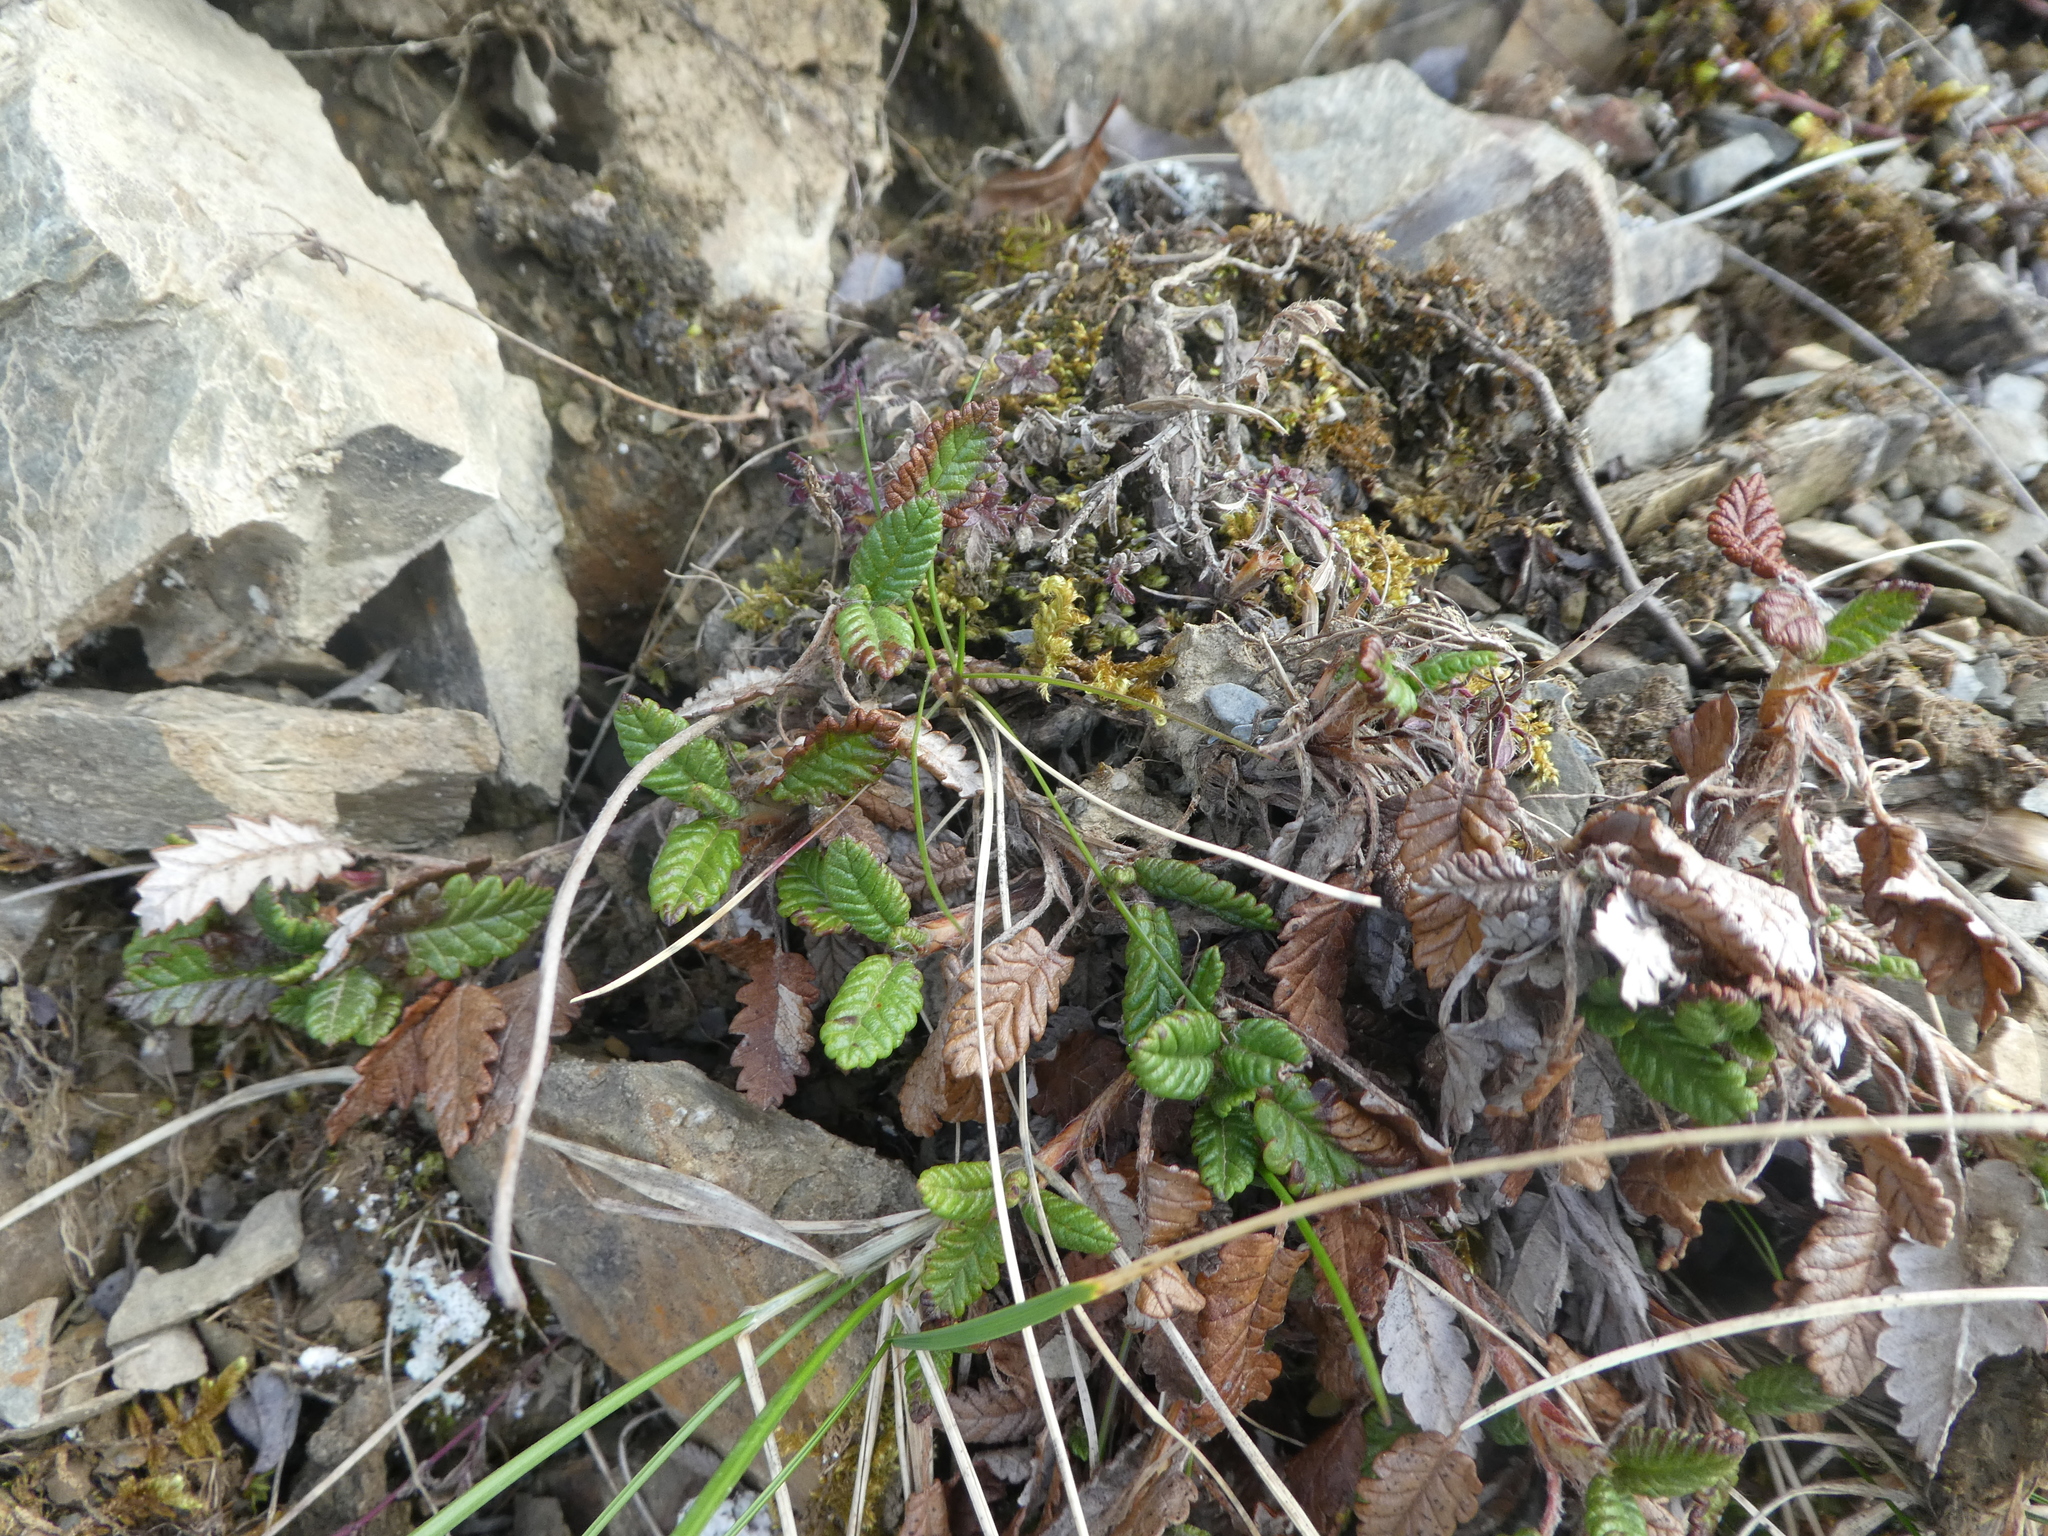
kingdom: Plantae
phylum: Tracheophyta
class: Magnoliopsida
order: Rosales
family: Rosaceae
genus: Dryas
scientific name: Dryas octopetala
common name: Eight-petal mountain-avens
